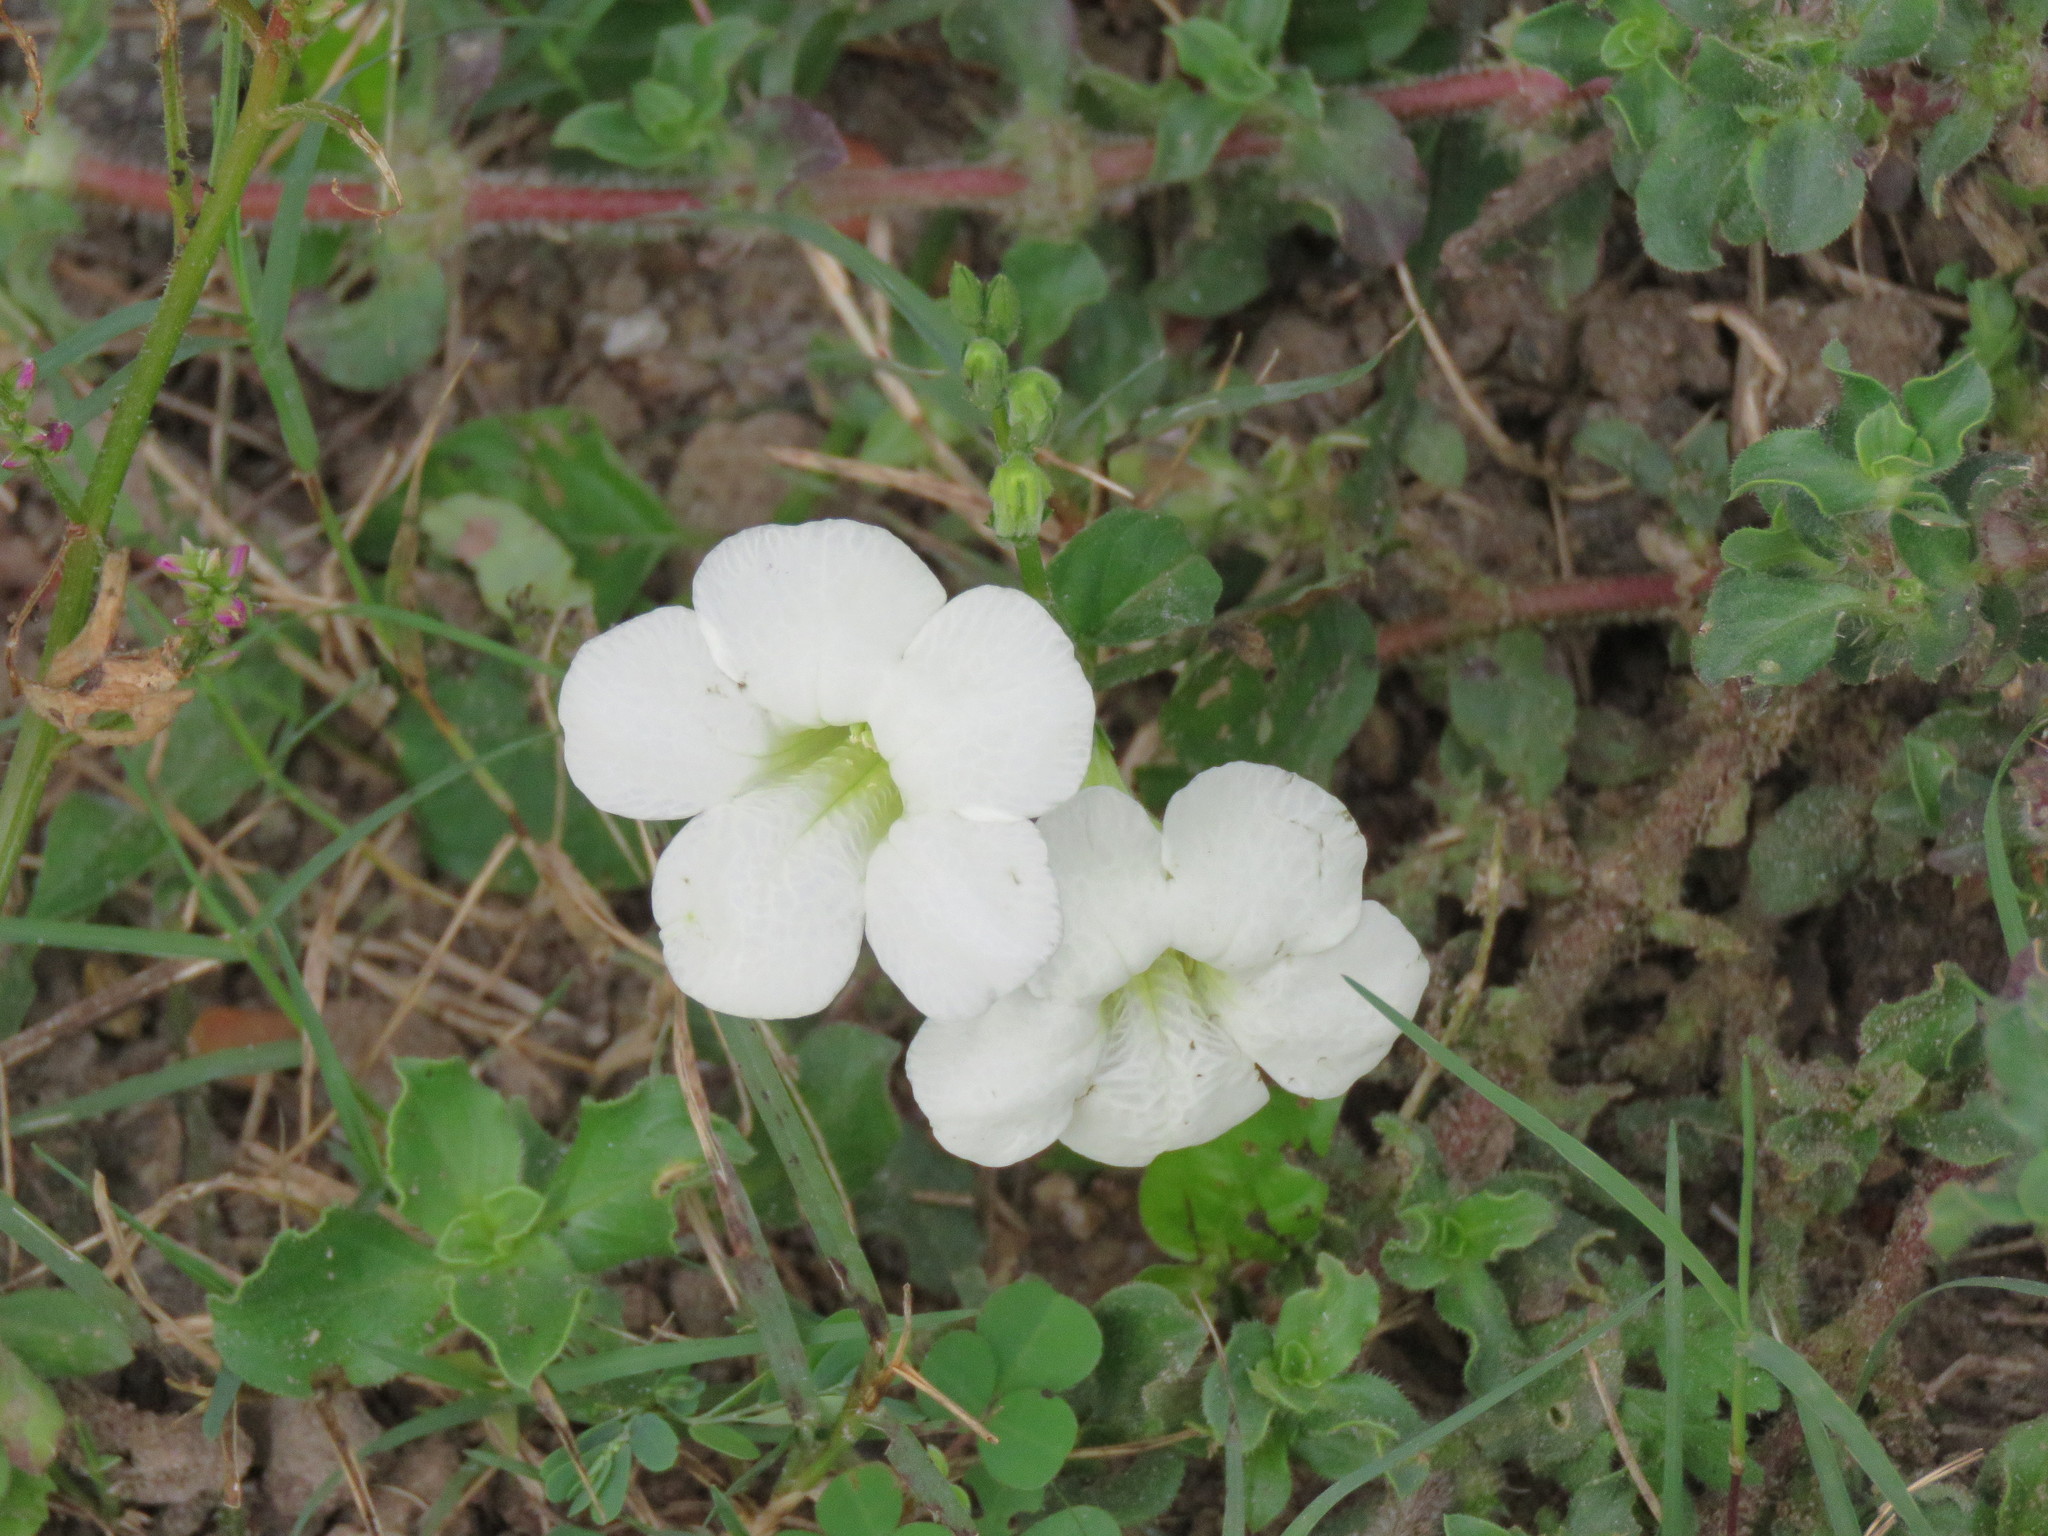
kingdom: Plantae
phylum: Tracheophyta
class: Magnoliopsida
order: Lamiales
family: Acanthaceae
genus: Asystasia
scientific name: Asystasia gangetica
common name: Chinese violet
